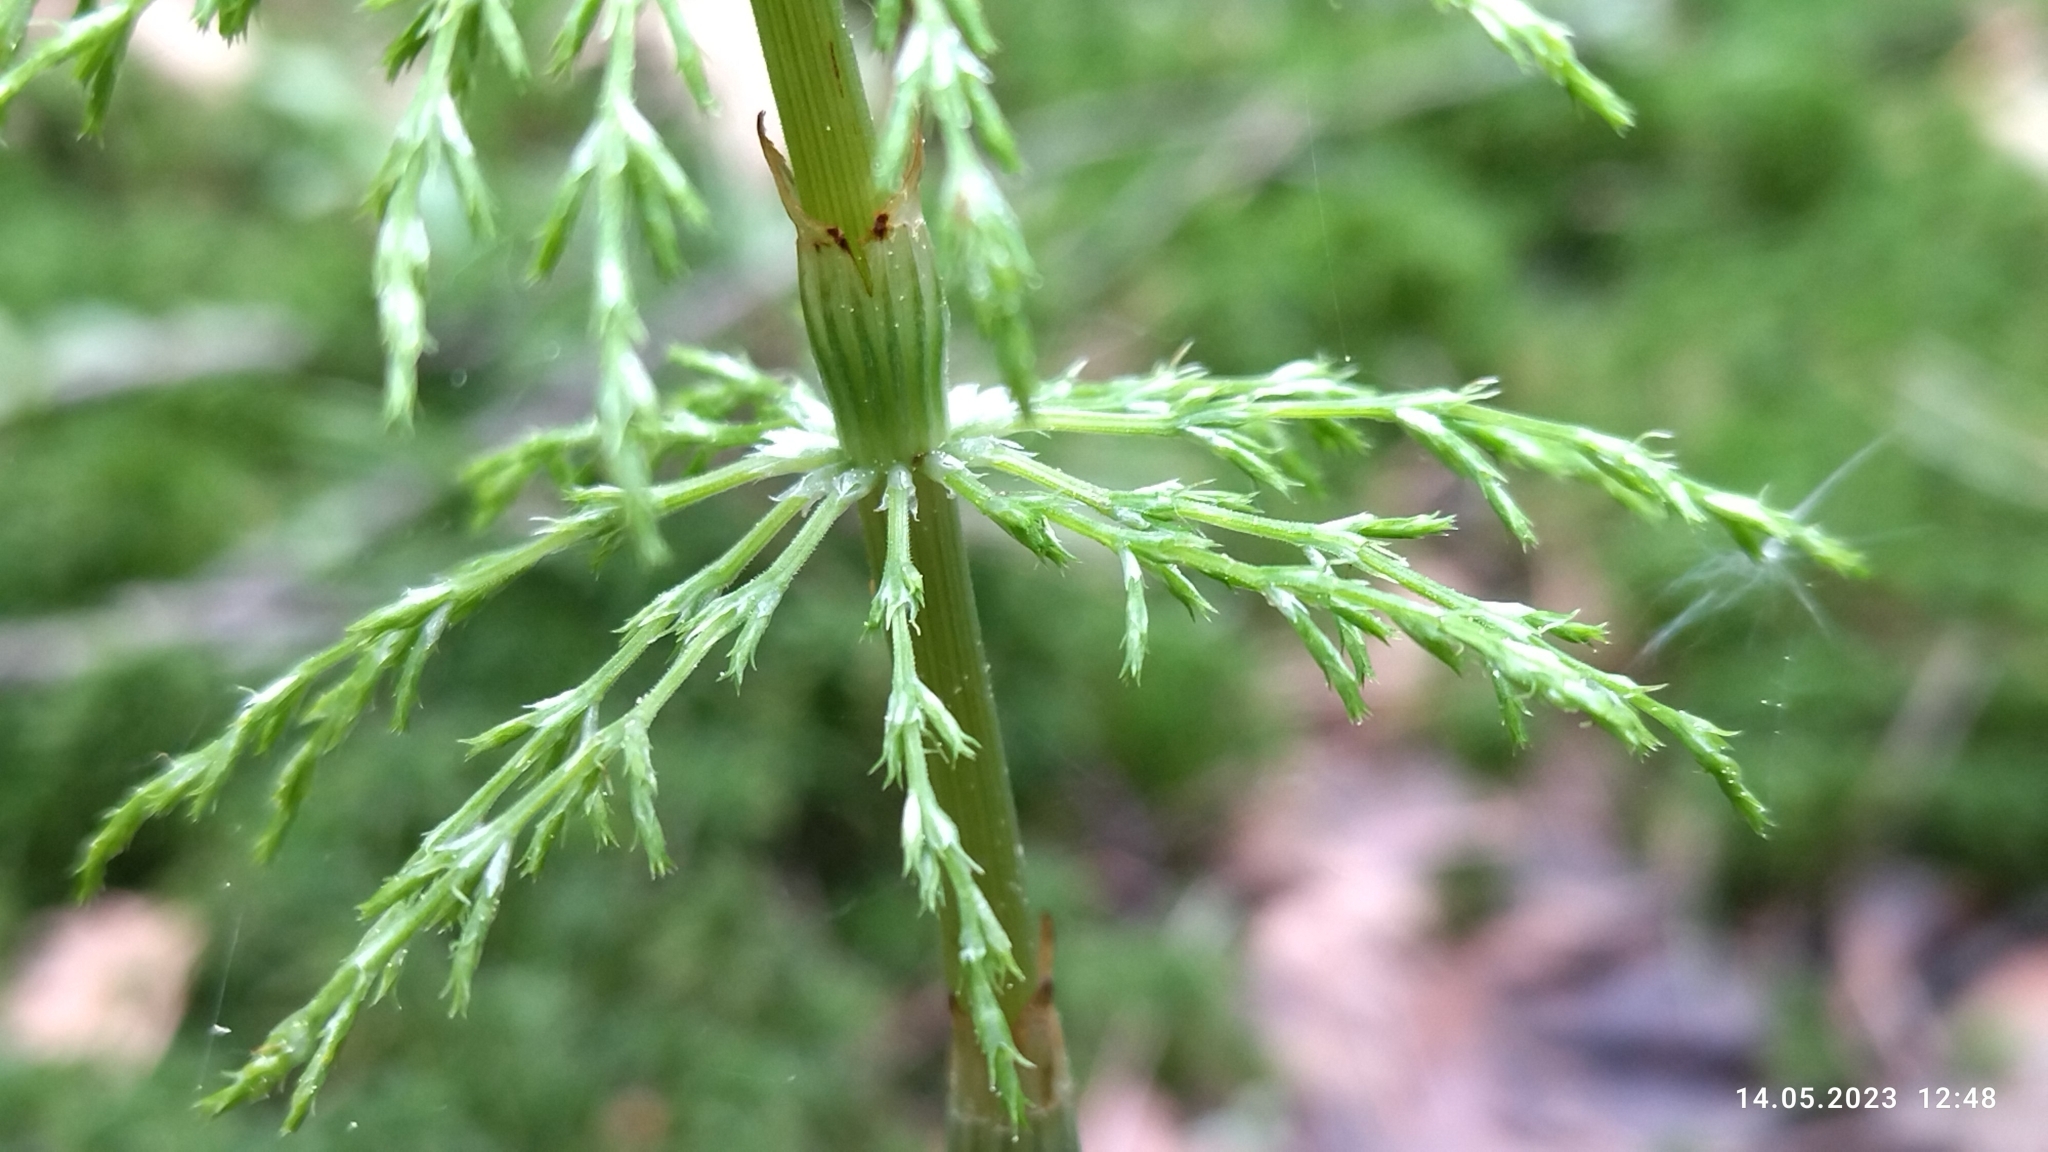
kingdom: Plantae
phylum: Tracheophyta
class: Polypodiopsida
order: Equisetales
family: Equisetaceae
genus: Equisetum
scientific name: Equisetum sylvaticum
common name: Wood horsetail
